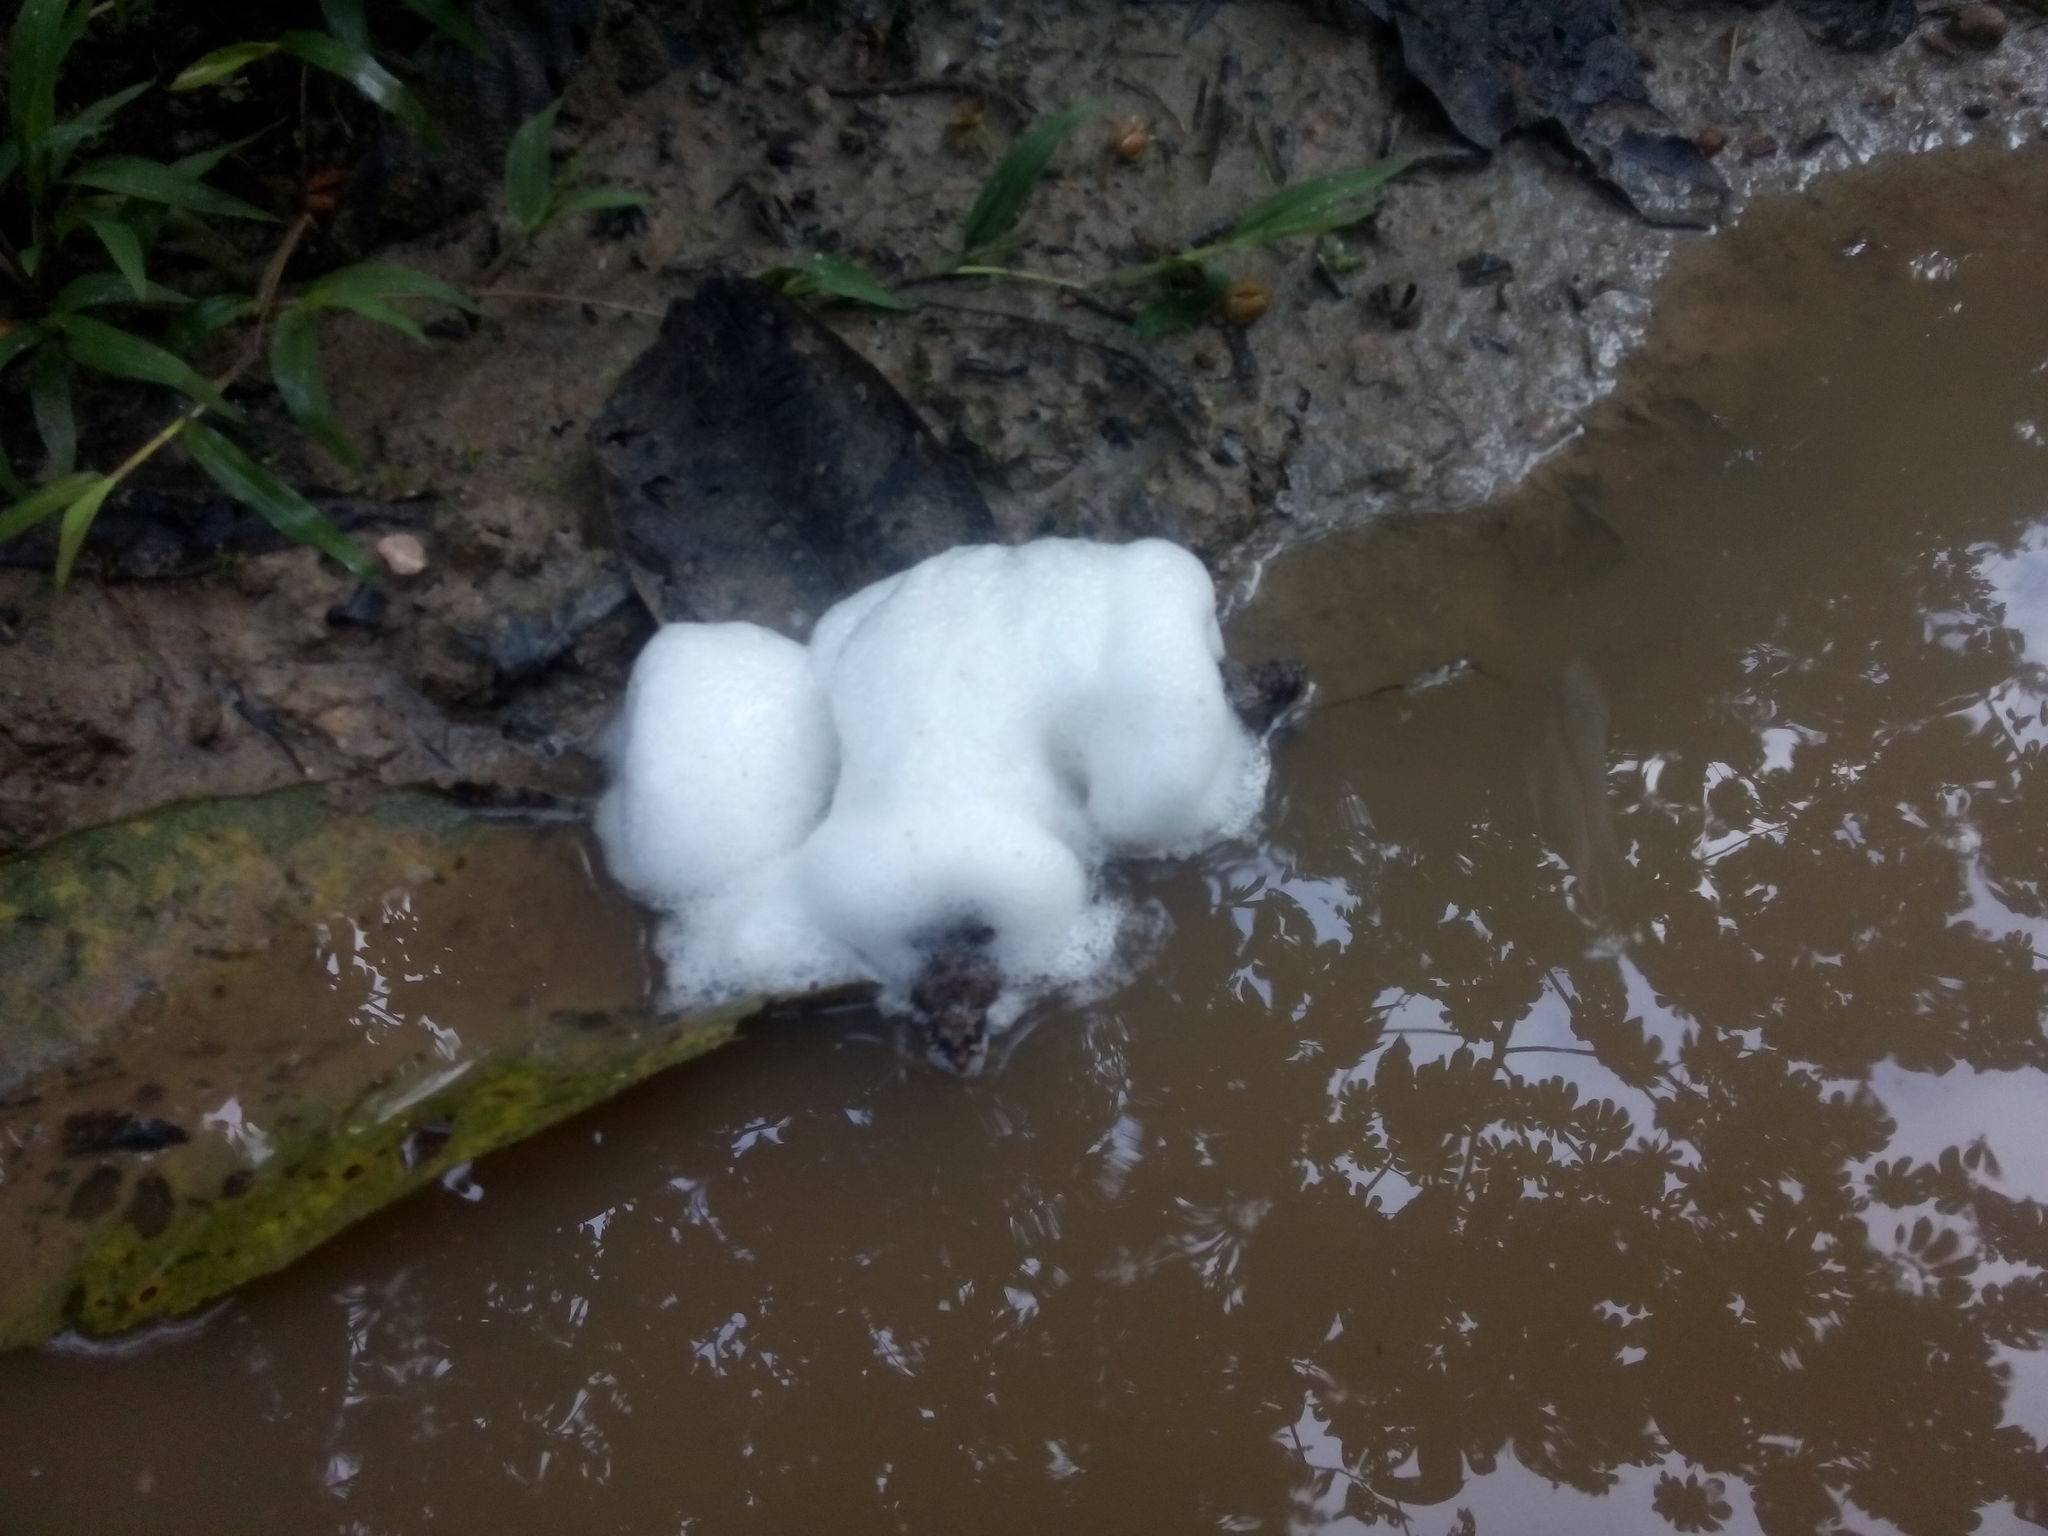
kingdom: Animalia
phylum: Chordata
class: Amphibia
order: Anura
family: Leptodactylidae
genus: Engystomops
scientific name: Engystomops pustulosus
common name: Tungara frog
